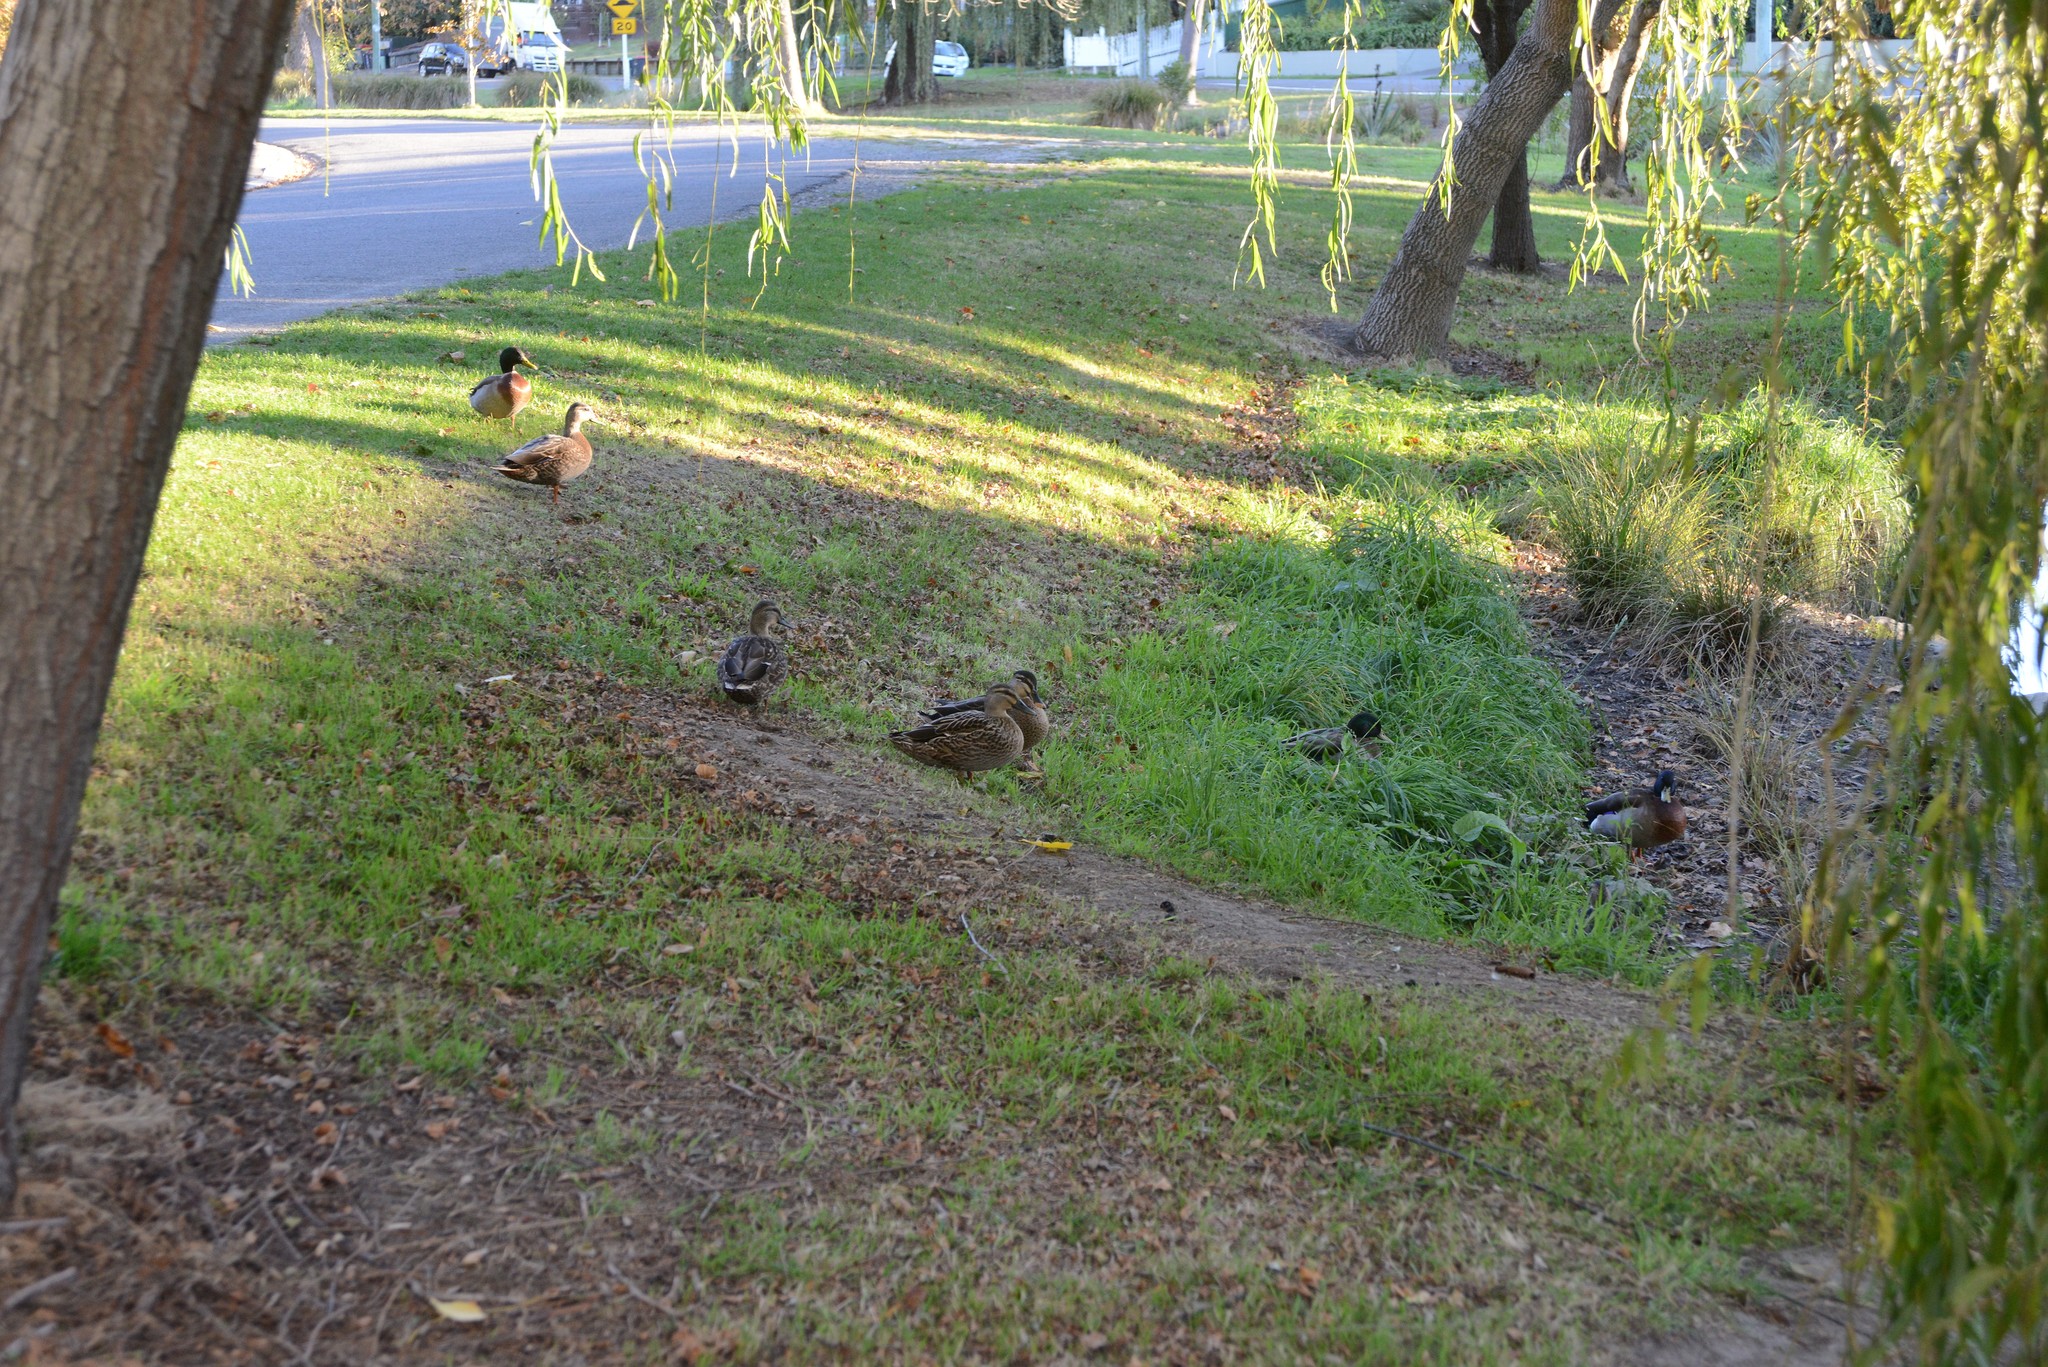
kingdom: Animalia
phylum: Chordata
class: Aves
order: Anseriformes
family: Anatidae
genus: Anas
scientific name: Anas platyrhynchos
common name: Mallard
